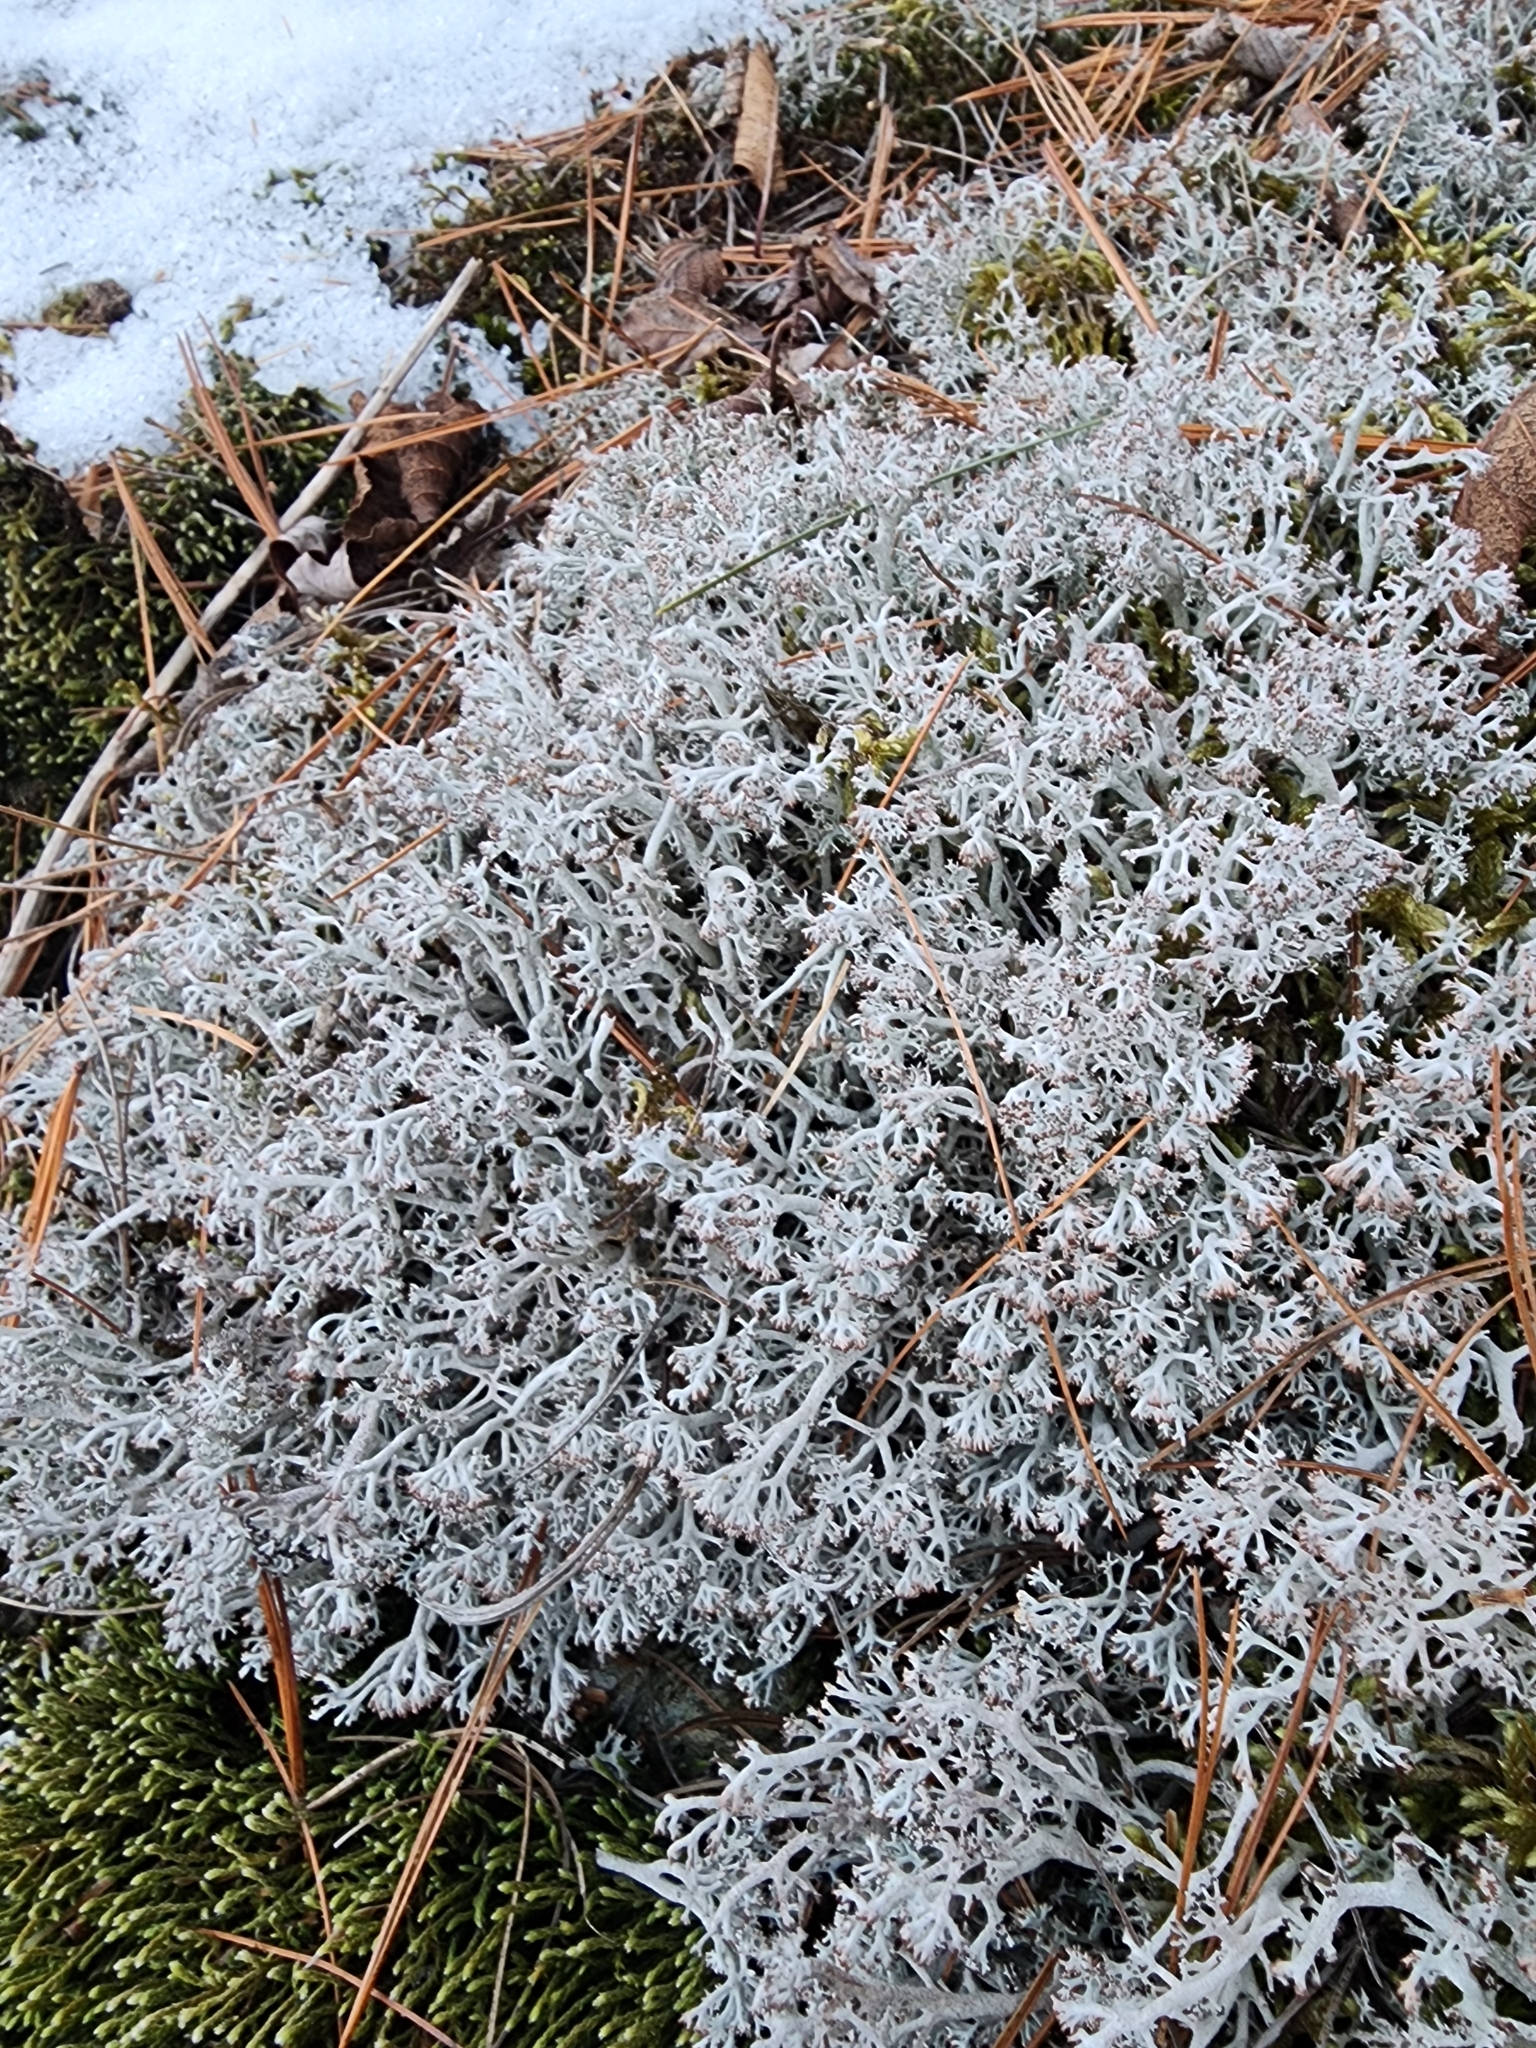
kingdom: Fungi
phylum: Ascomycota
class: Lecanoromycetes
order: Lecanorales
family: Cladoniaceae
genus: Cladonia
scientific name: Cladonia rangiferina
